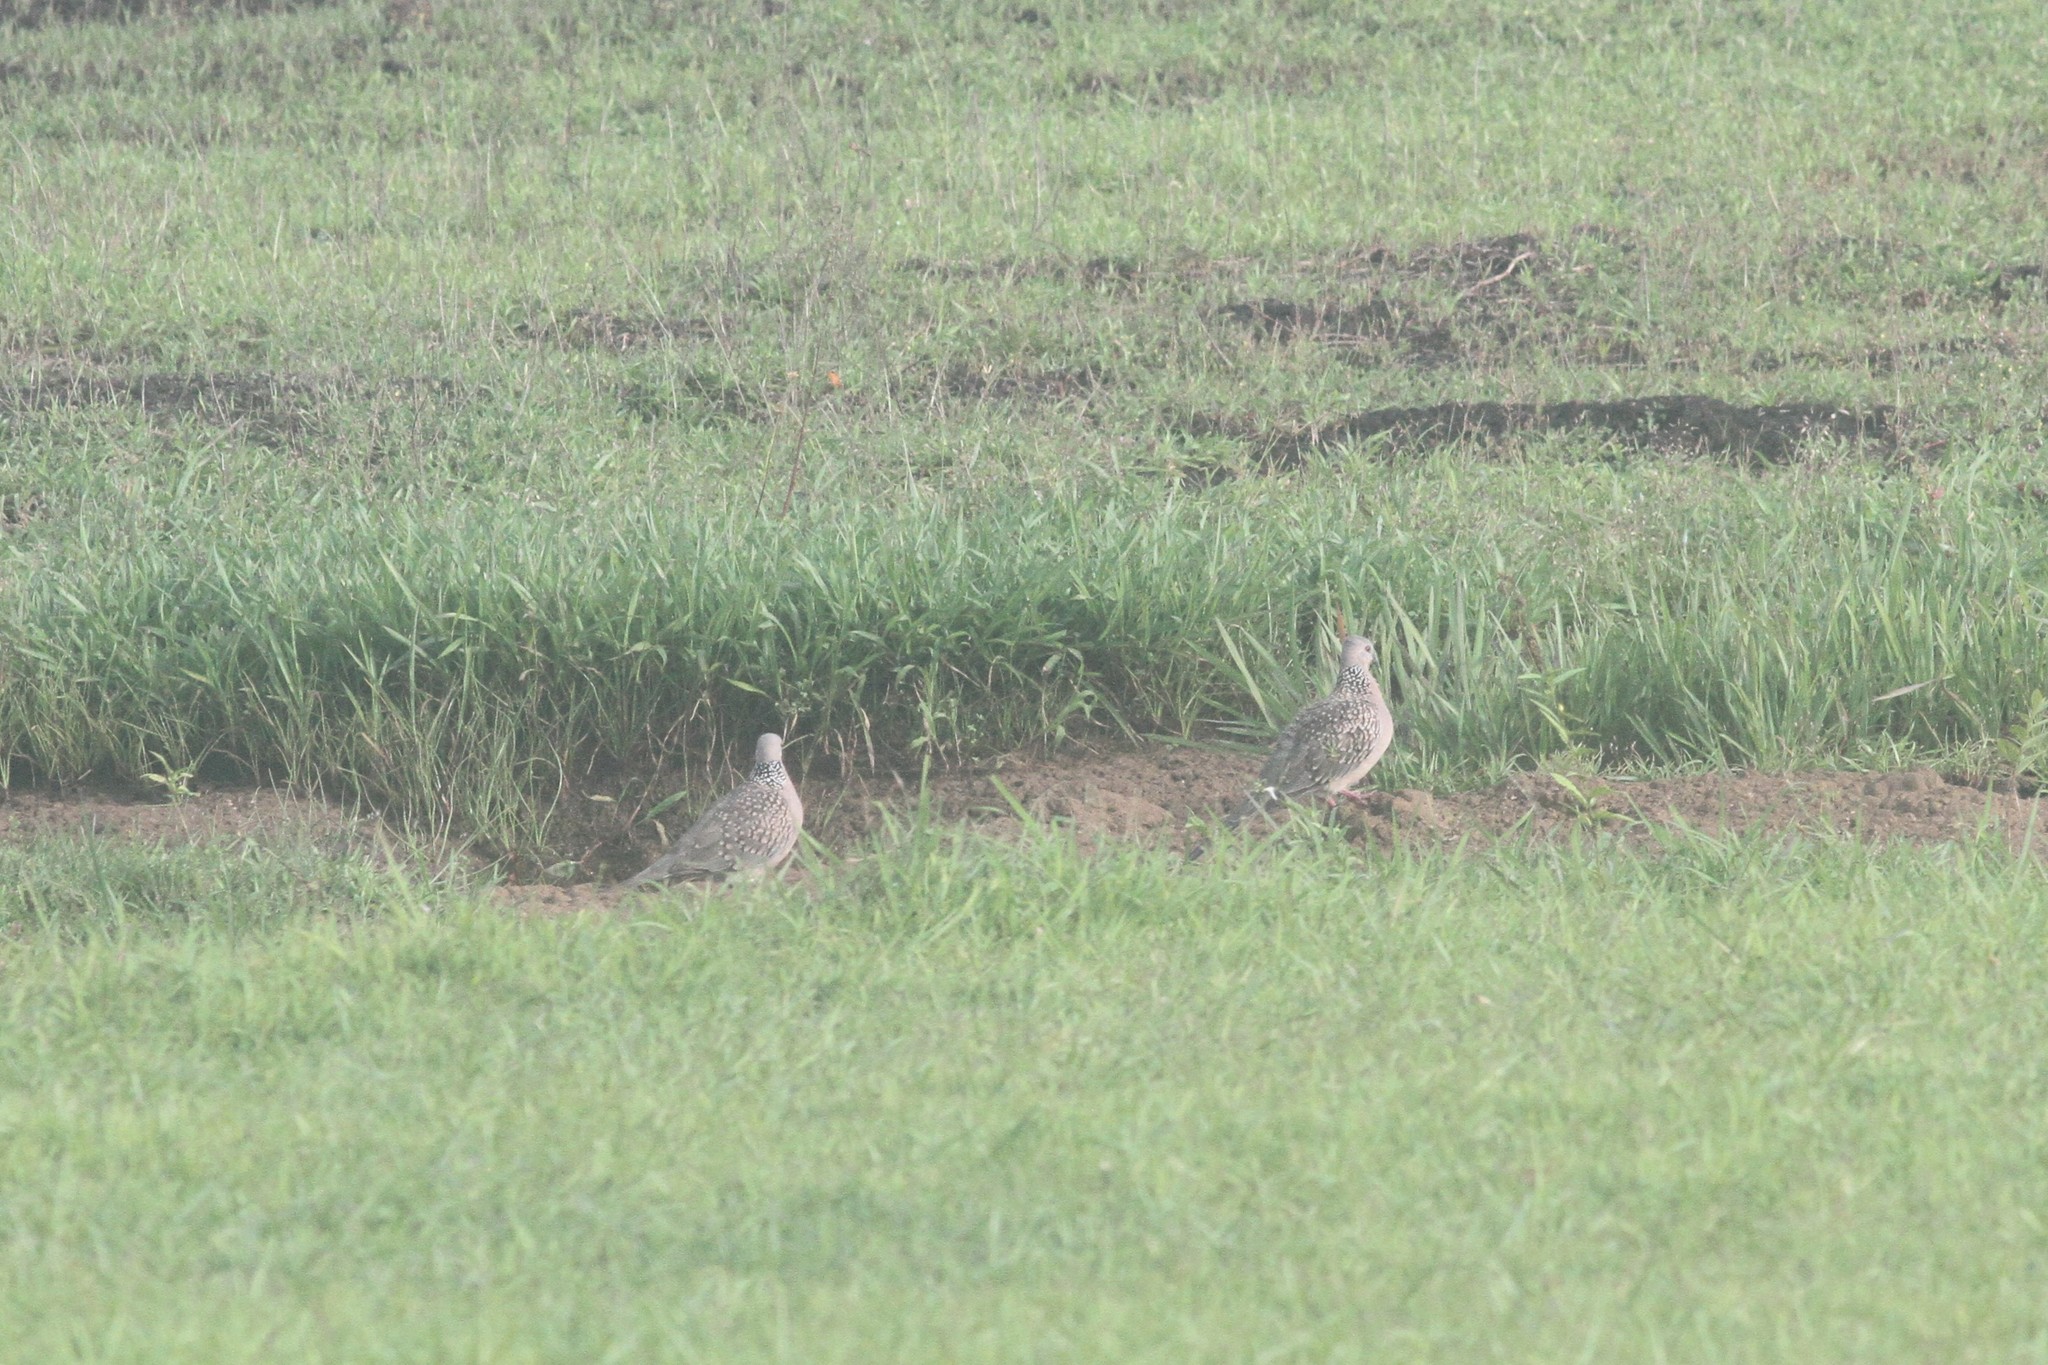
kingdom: Animalia
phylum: Chordata
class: Aves
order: Columbiformes
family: Columbidae
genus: Spilopelia
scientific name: Spilopelia chinensis
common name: Spotted dove
